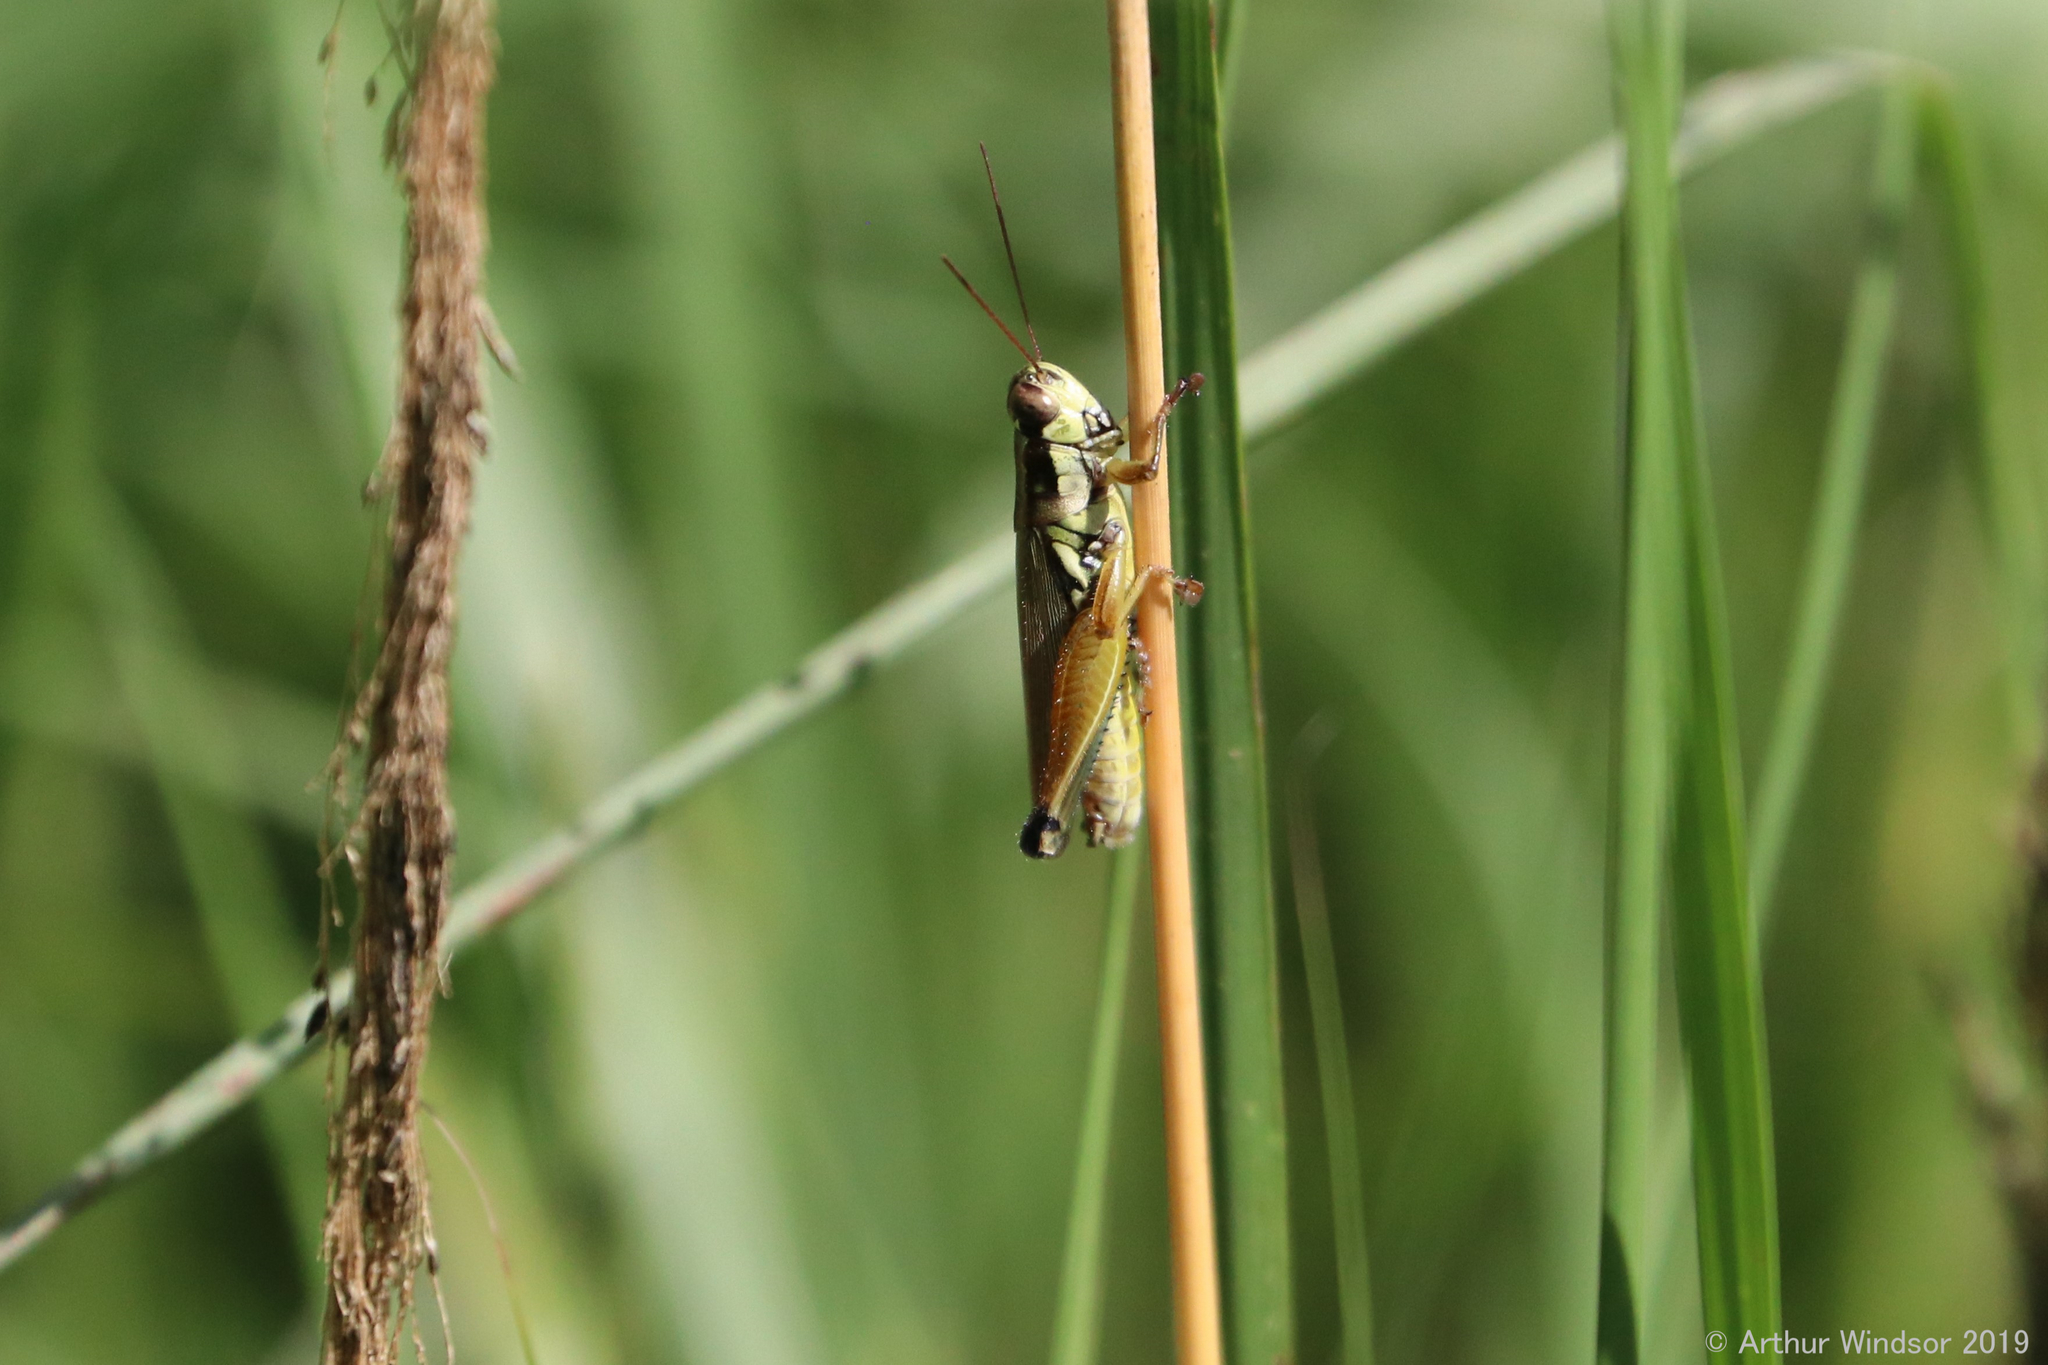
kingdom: Animalia
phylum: Arthropoda
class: Insecta
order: Orthoptera
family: Acrididae
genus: Paroxya
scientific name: Paroxya atlantica
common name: Atlantic grasshopper
